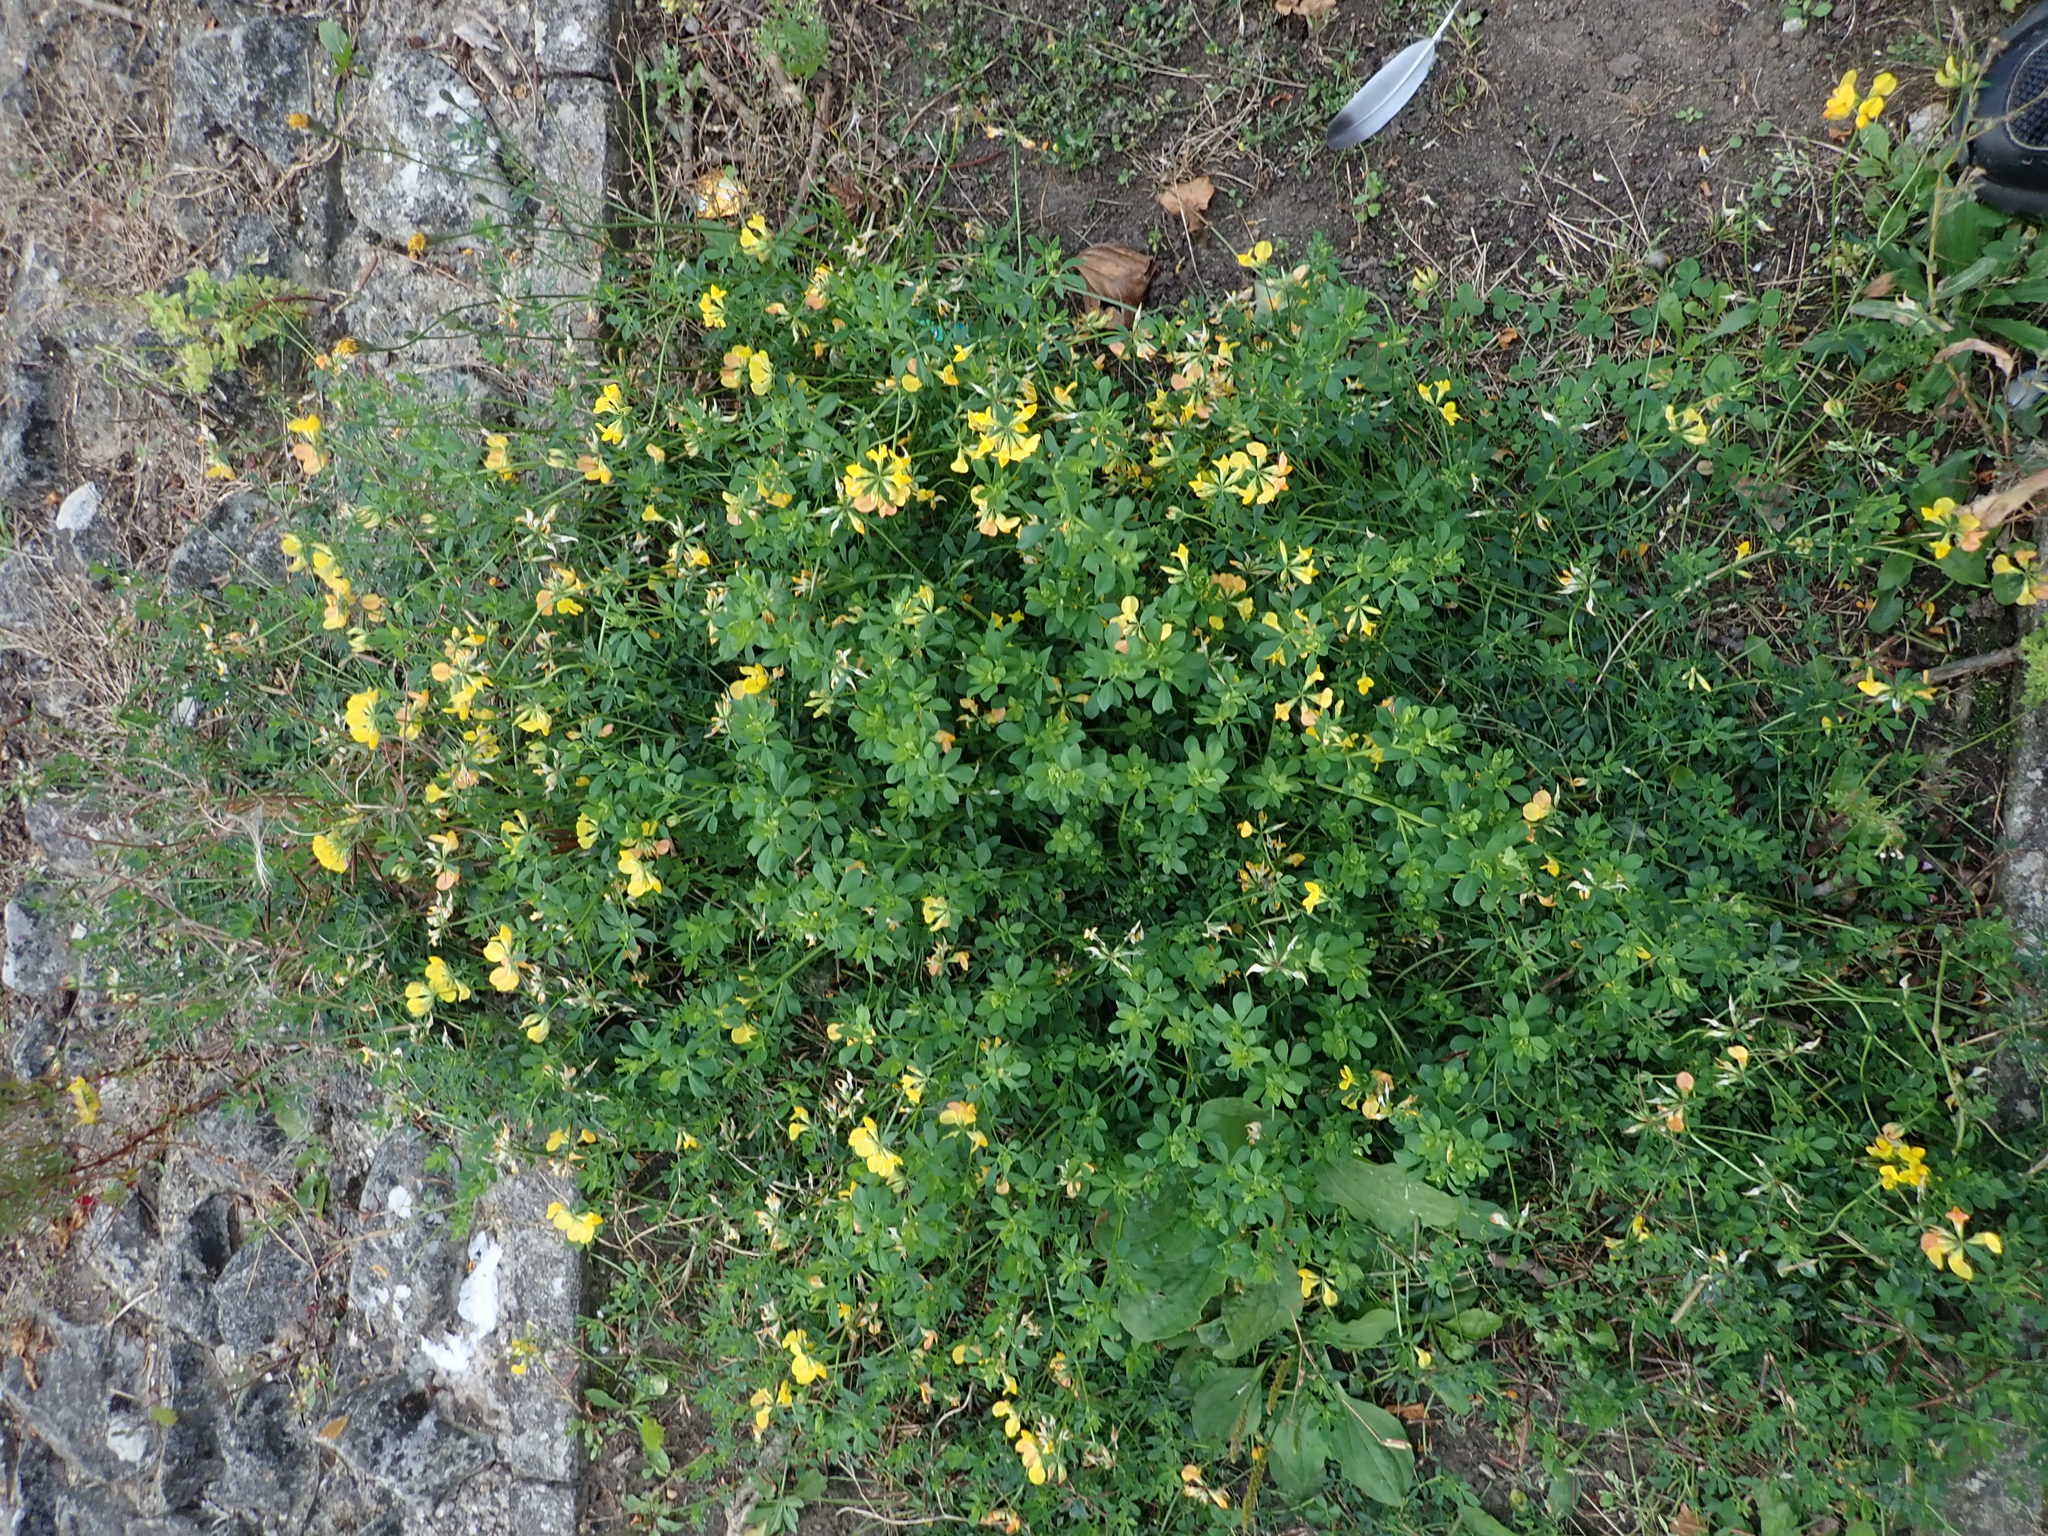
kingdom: Plantae
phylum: Tracheophyta
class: Magnoliopsida
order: Fabales
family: Fabaceae
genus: Lotus
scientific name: Lotus corniculatus
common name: Common bird's-foot-trefoil
